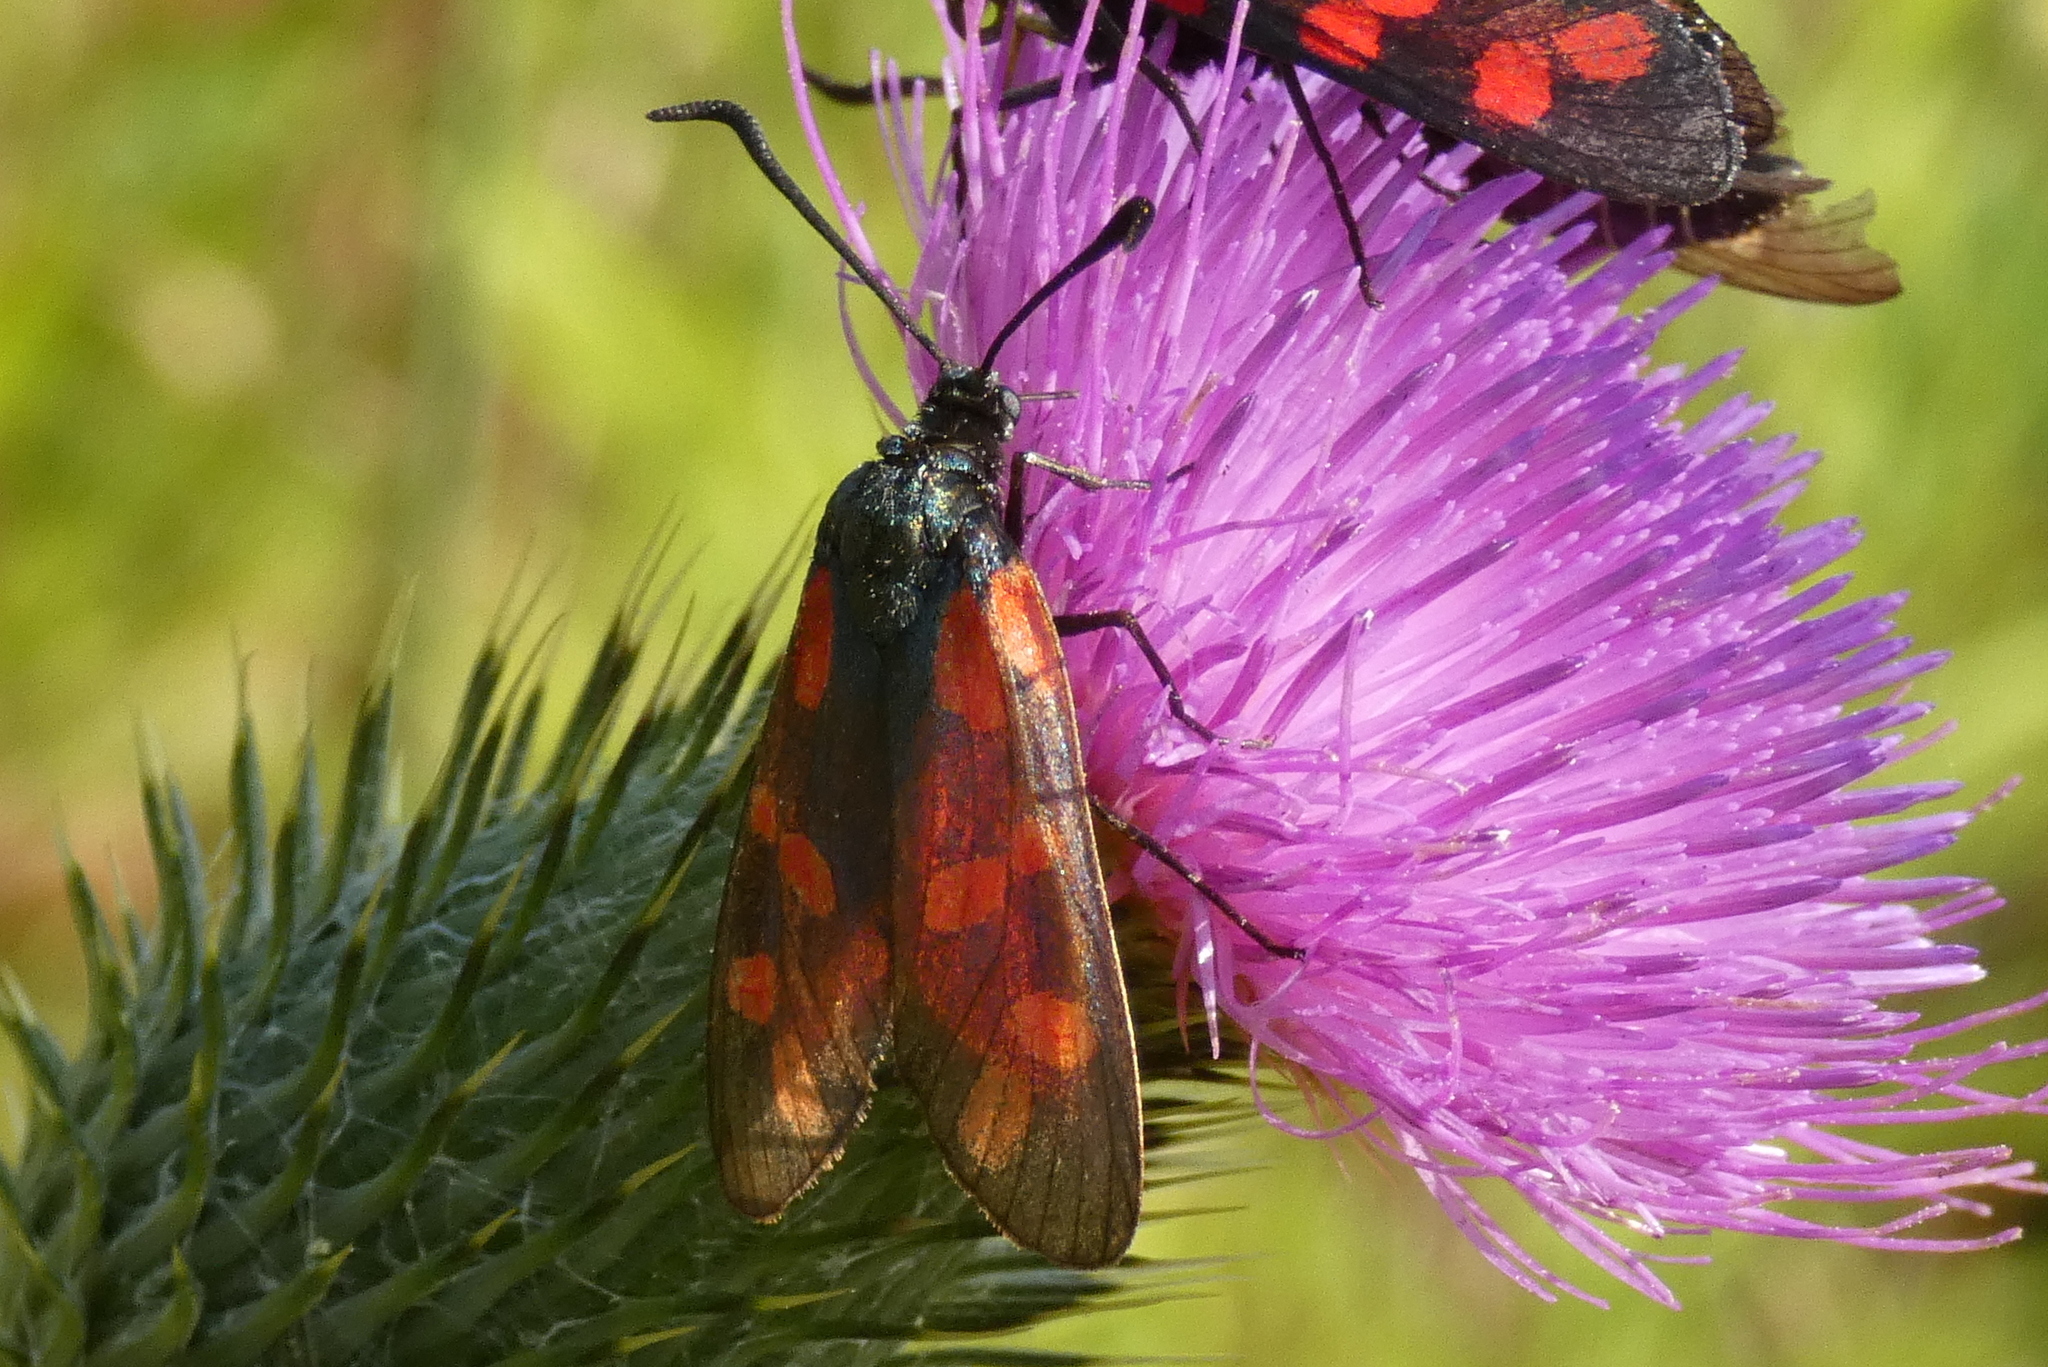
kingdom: Animalia
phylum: Arthropoda
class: Insecta
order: Lepidoptera
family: Zygaenidae
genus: Zygaena
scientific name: Zygaena filipendulae
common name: Six-spot burnet
